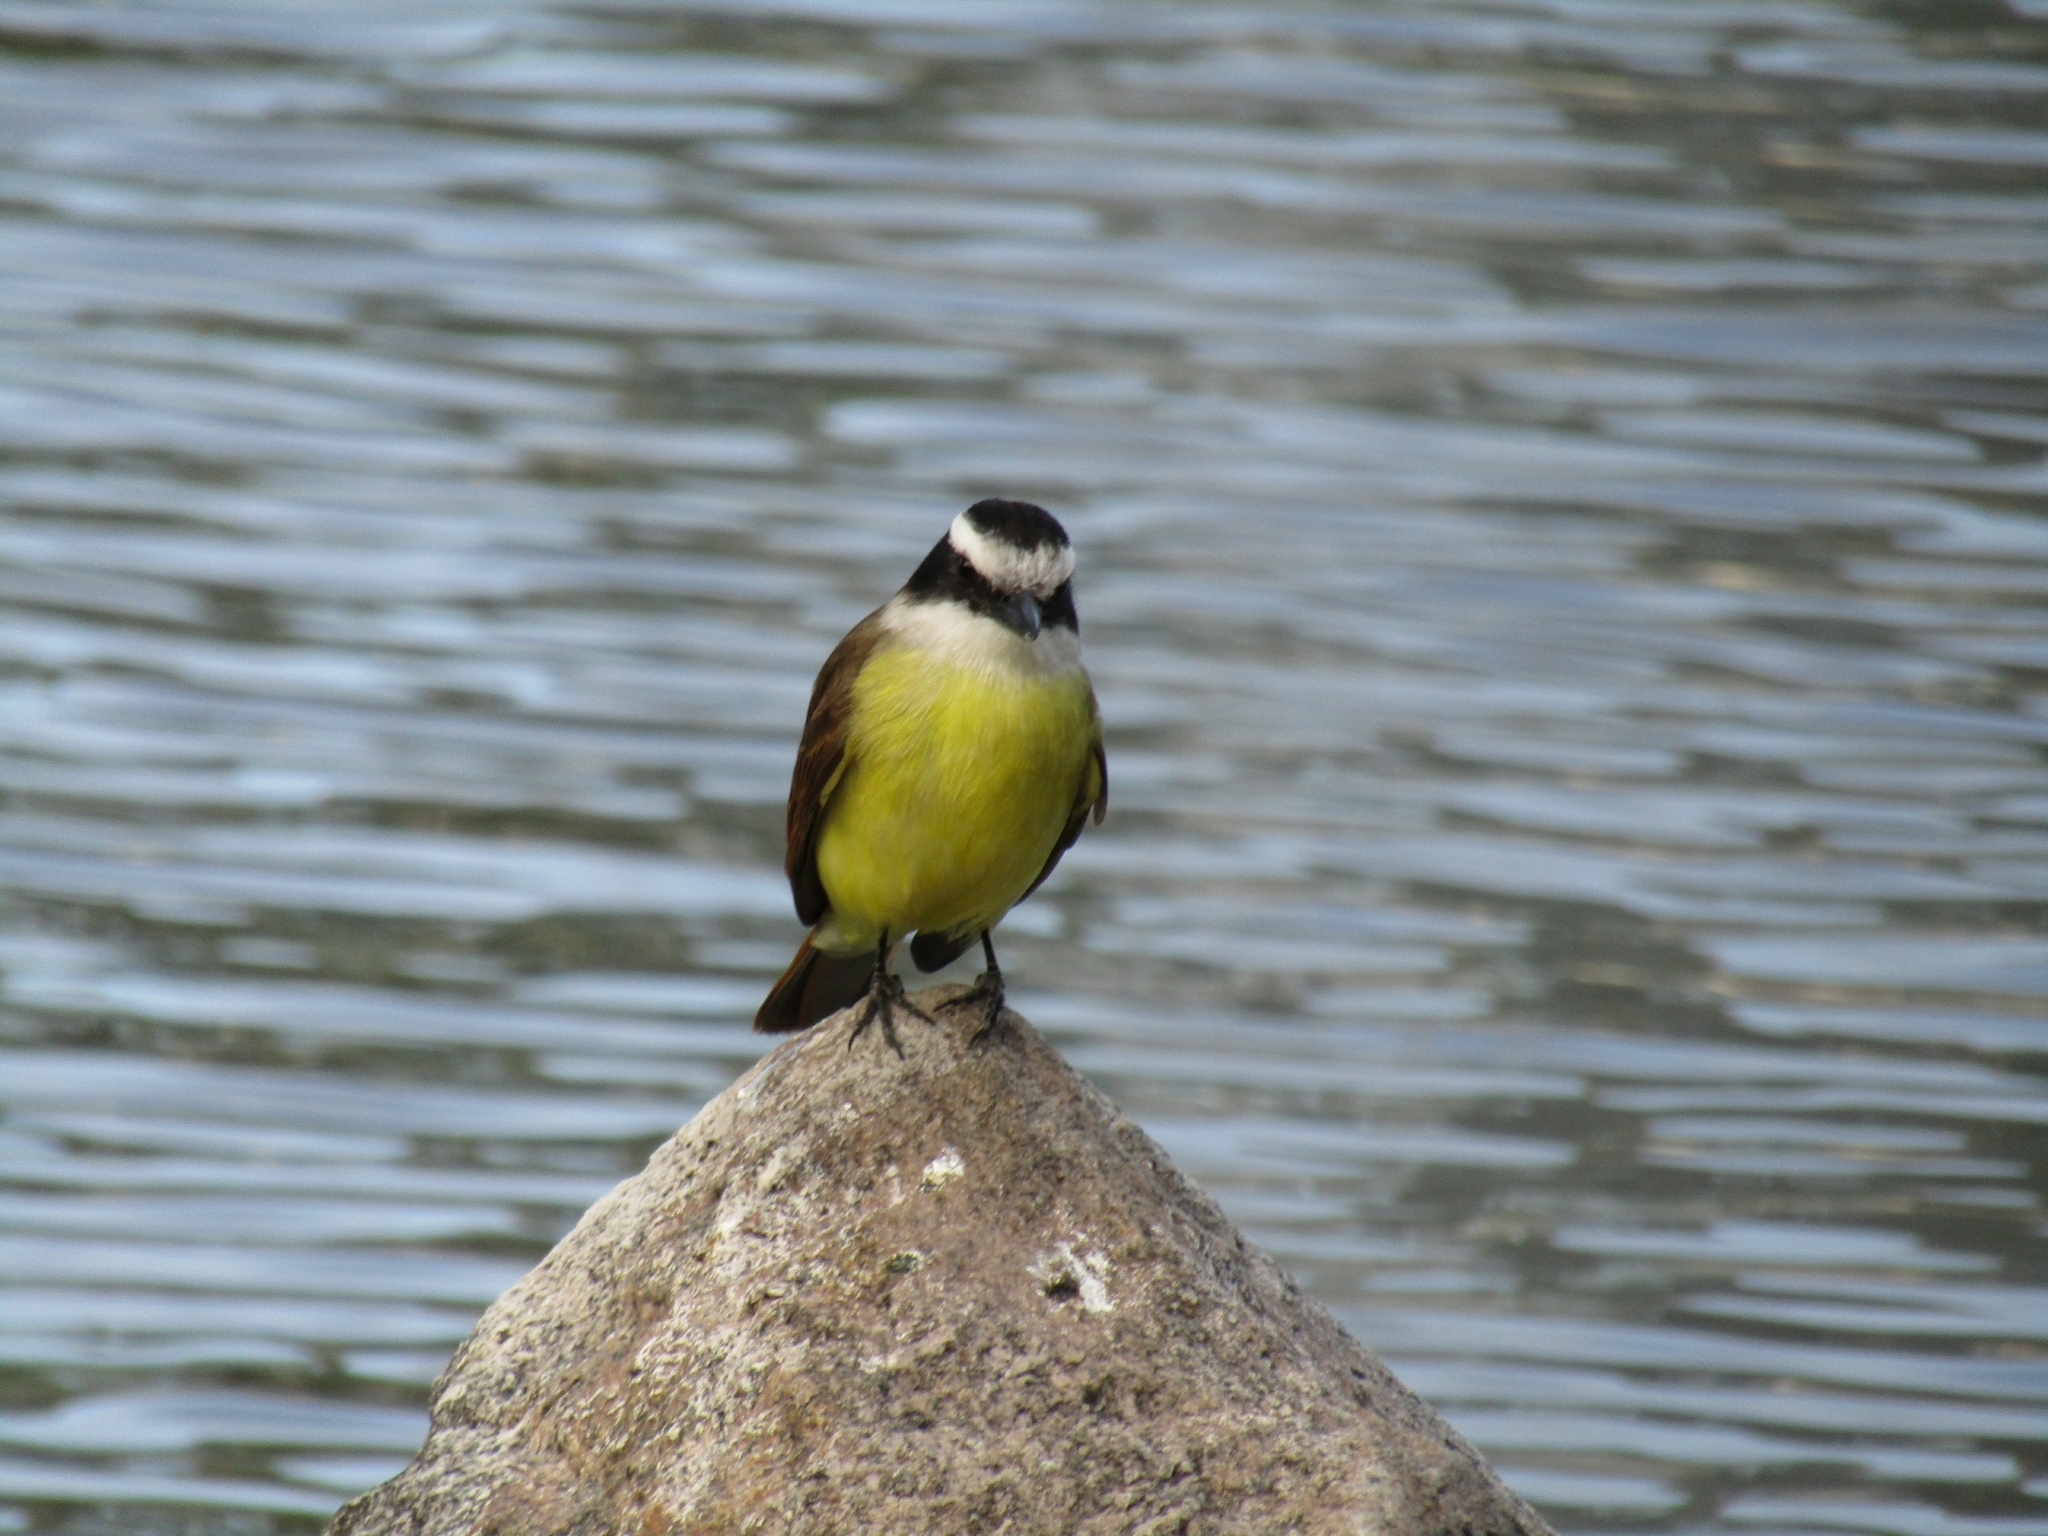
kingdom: Animalia
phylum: Chordata
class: Aves
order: Passeriformes
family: Tyrannidae
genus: Pitangus
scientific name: Pitangus sulphuratus
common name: Great kiskadee
